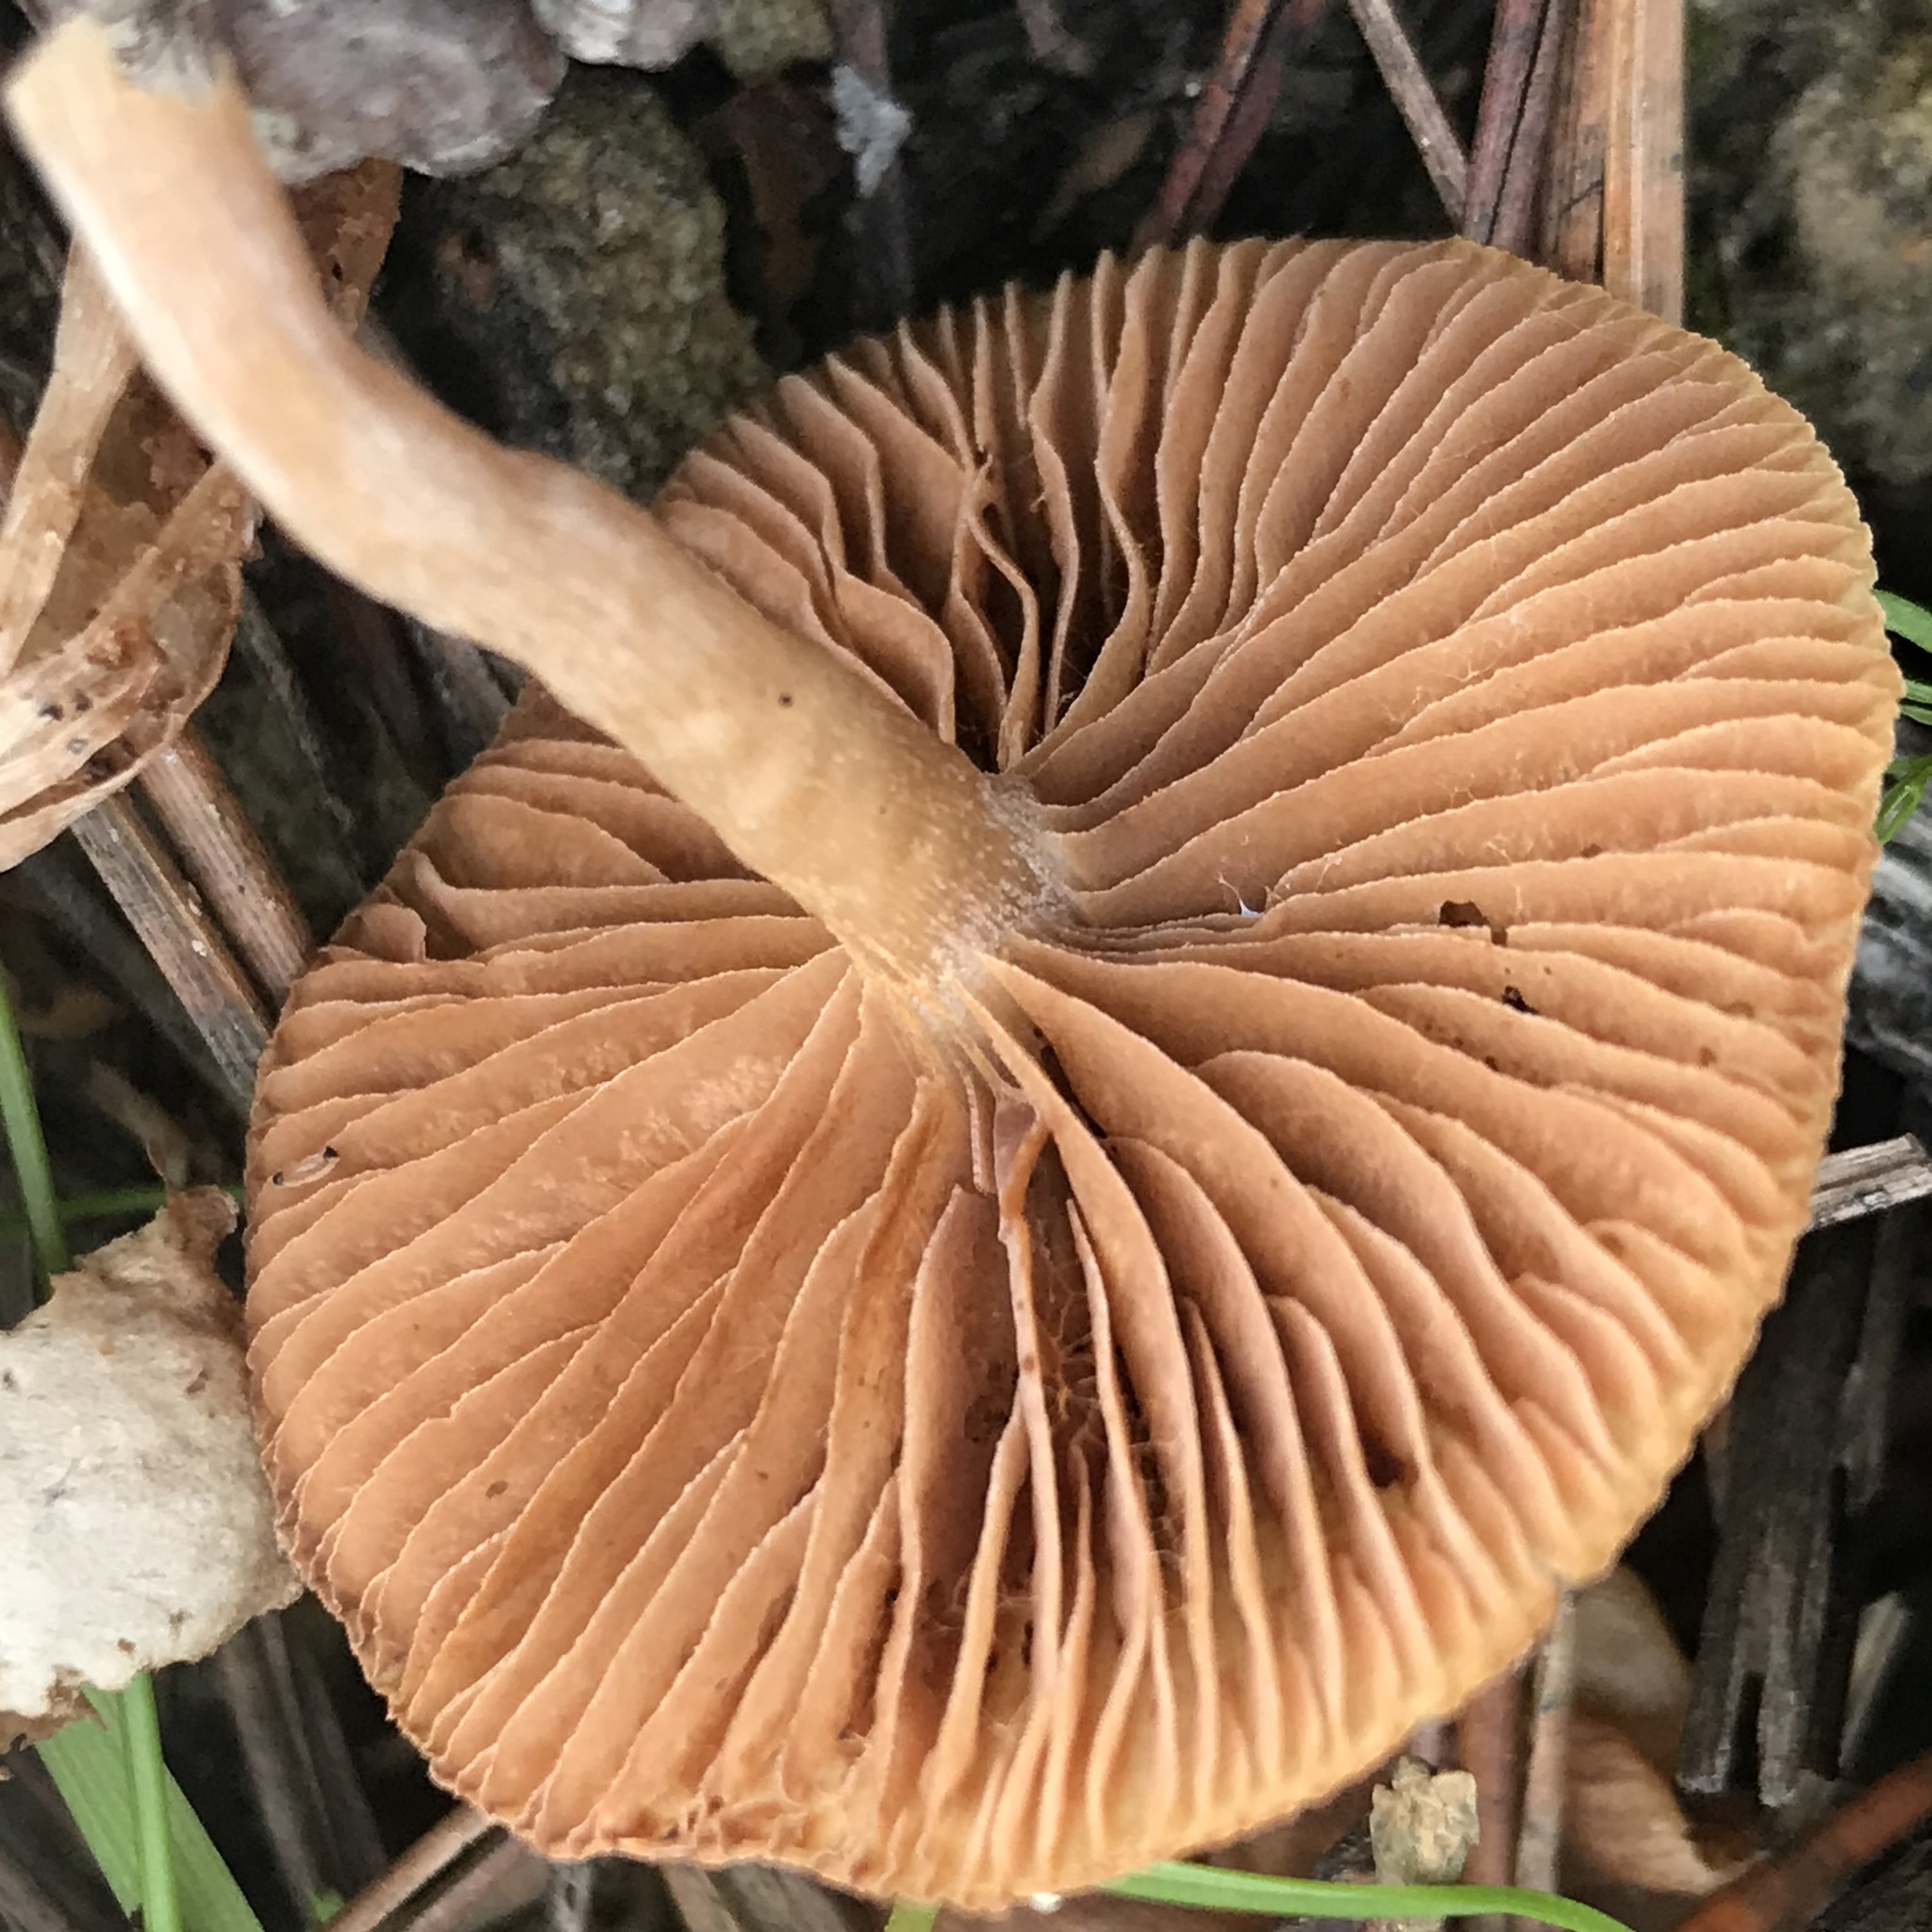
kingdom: Fungi
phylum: Basidiomycota
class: Agaricomycetes
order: Agaricales
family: Tubariaceae
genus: Tubaria
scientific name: Tubaria furfuracea
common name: Scurfy twiglet
